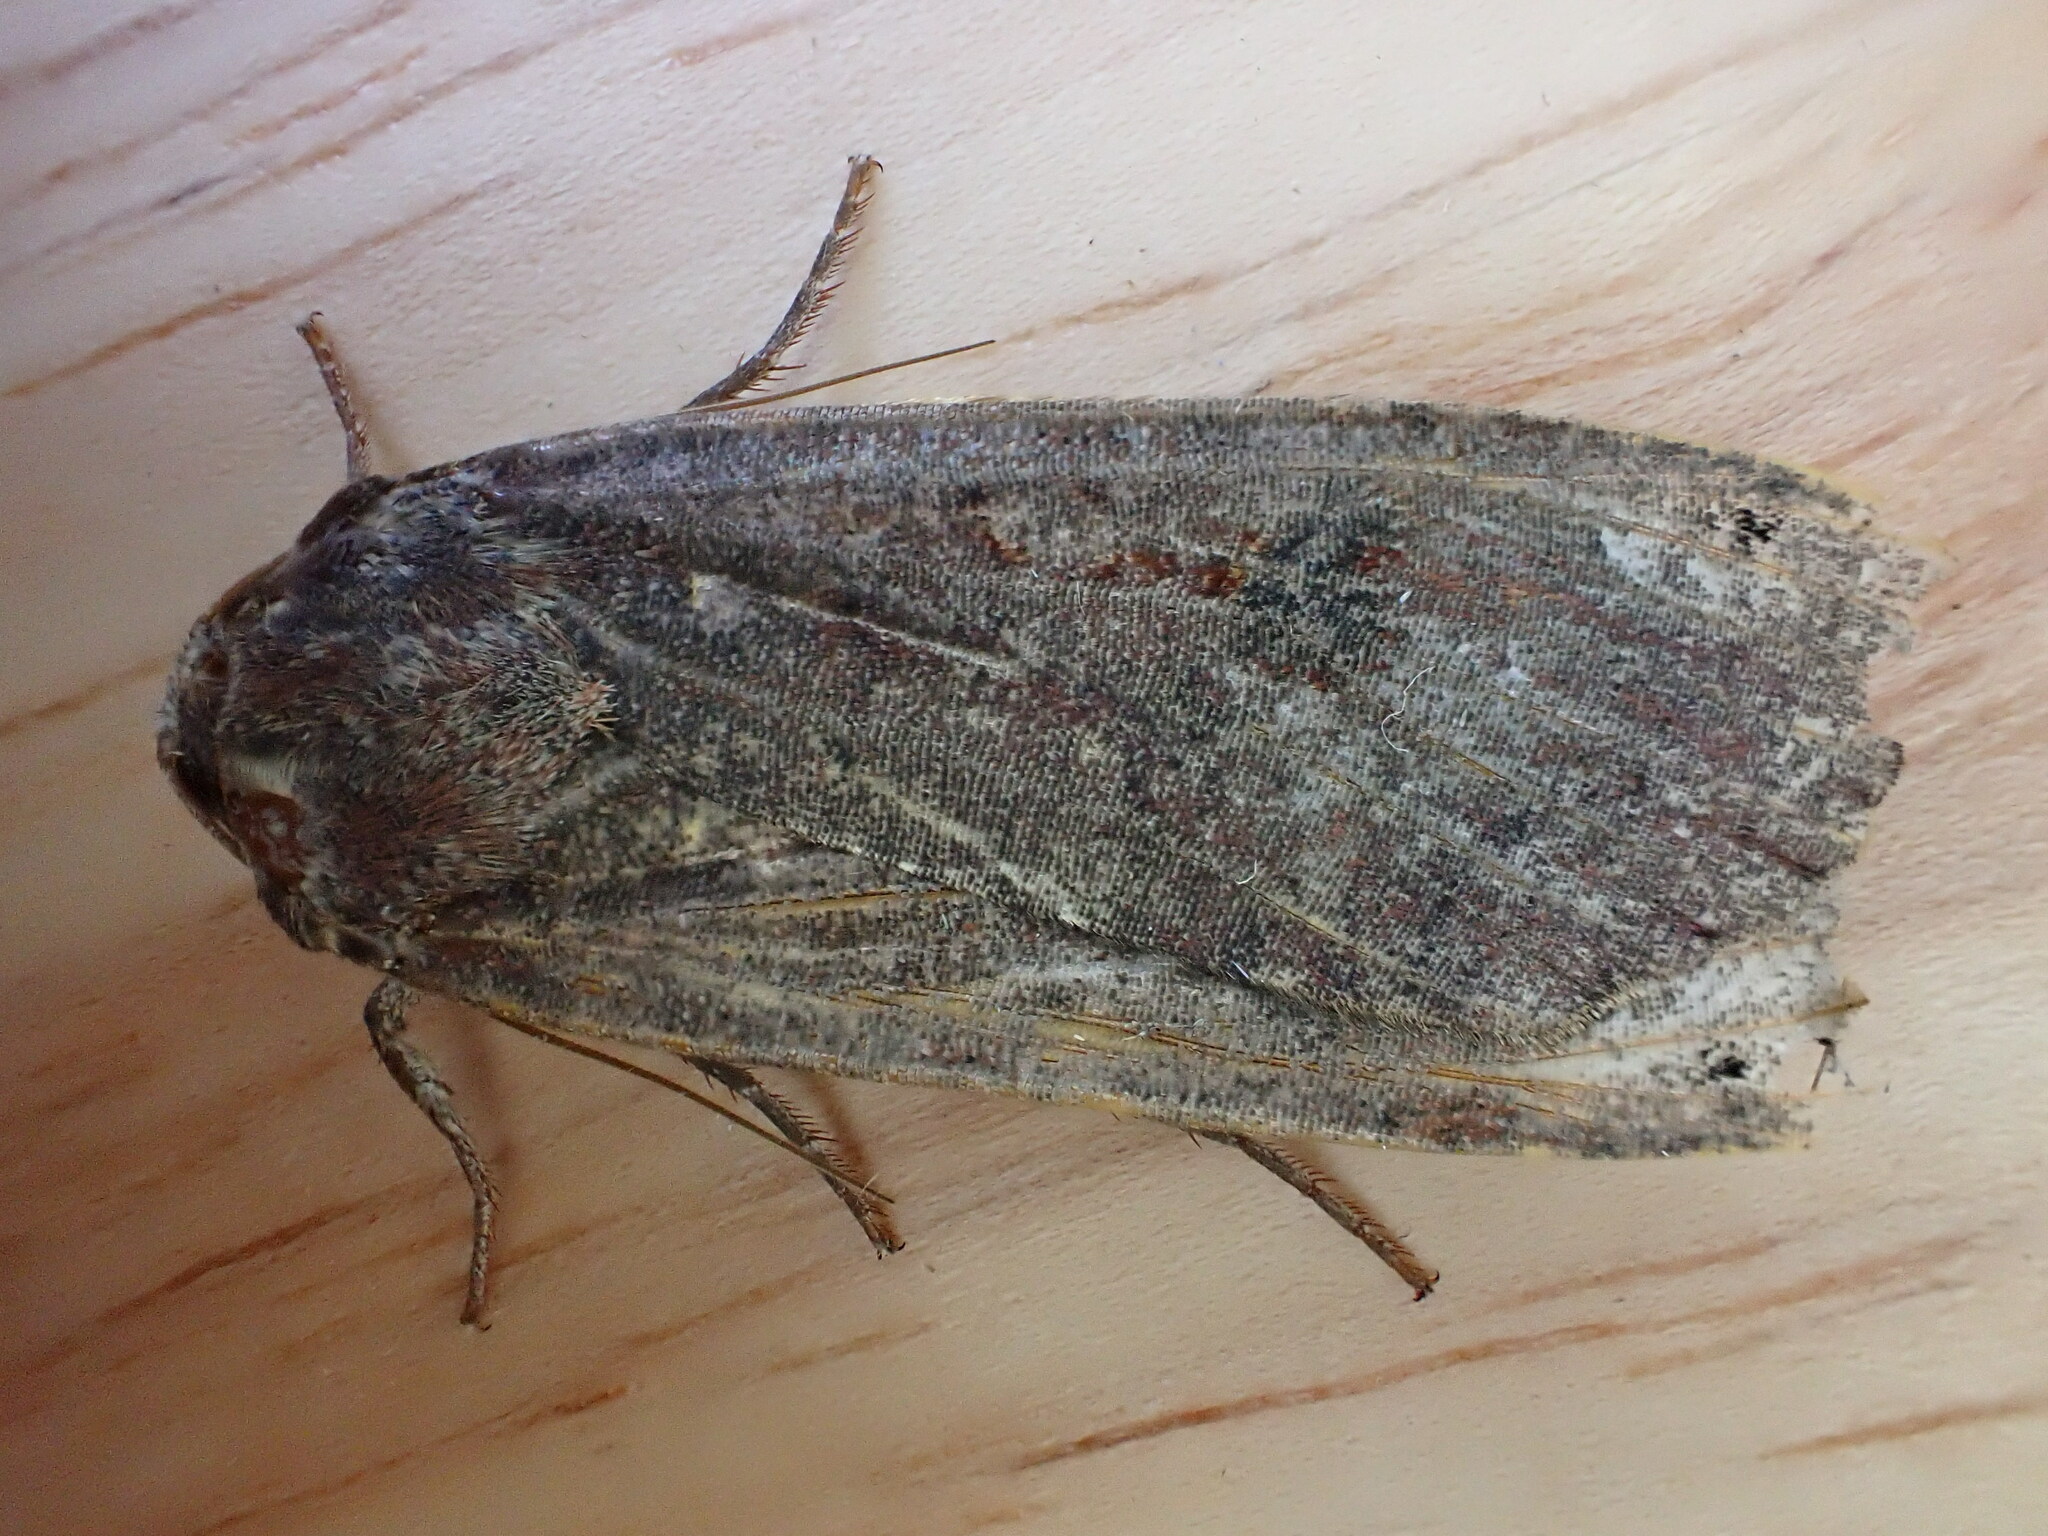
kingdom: Animalia
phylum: Arthropoda
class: Insecta
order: Lepidoptera
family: Noctuidae
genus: Noctua
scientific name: Noctua pronuba
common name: Large yellow underwing
